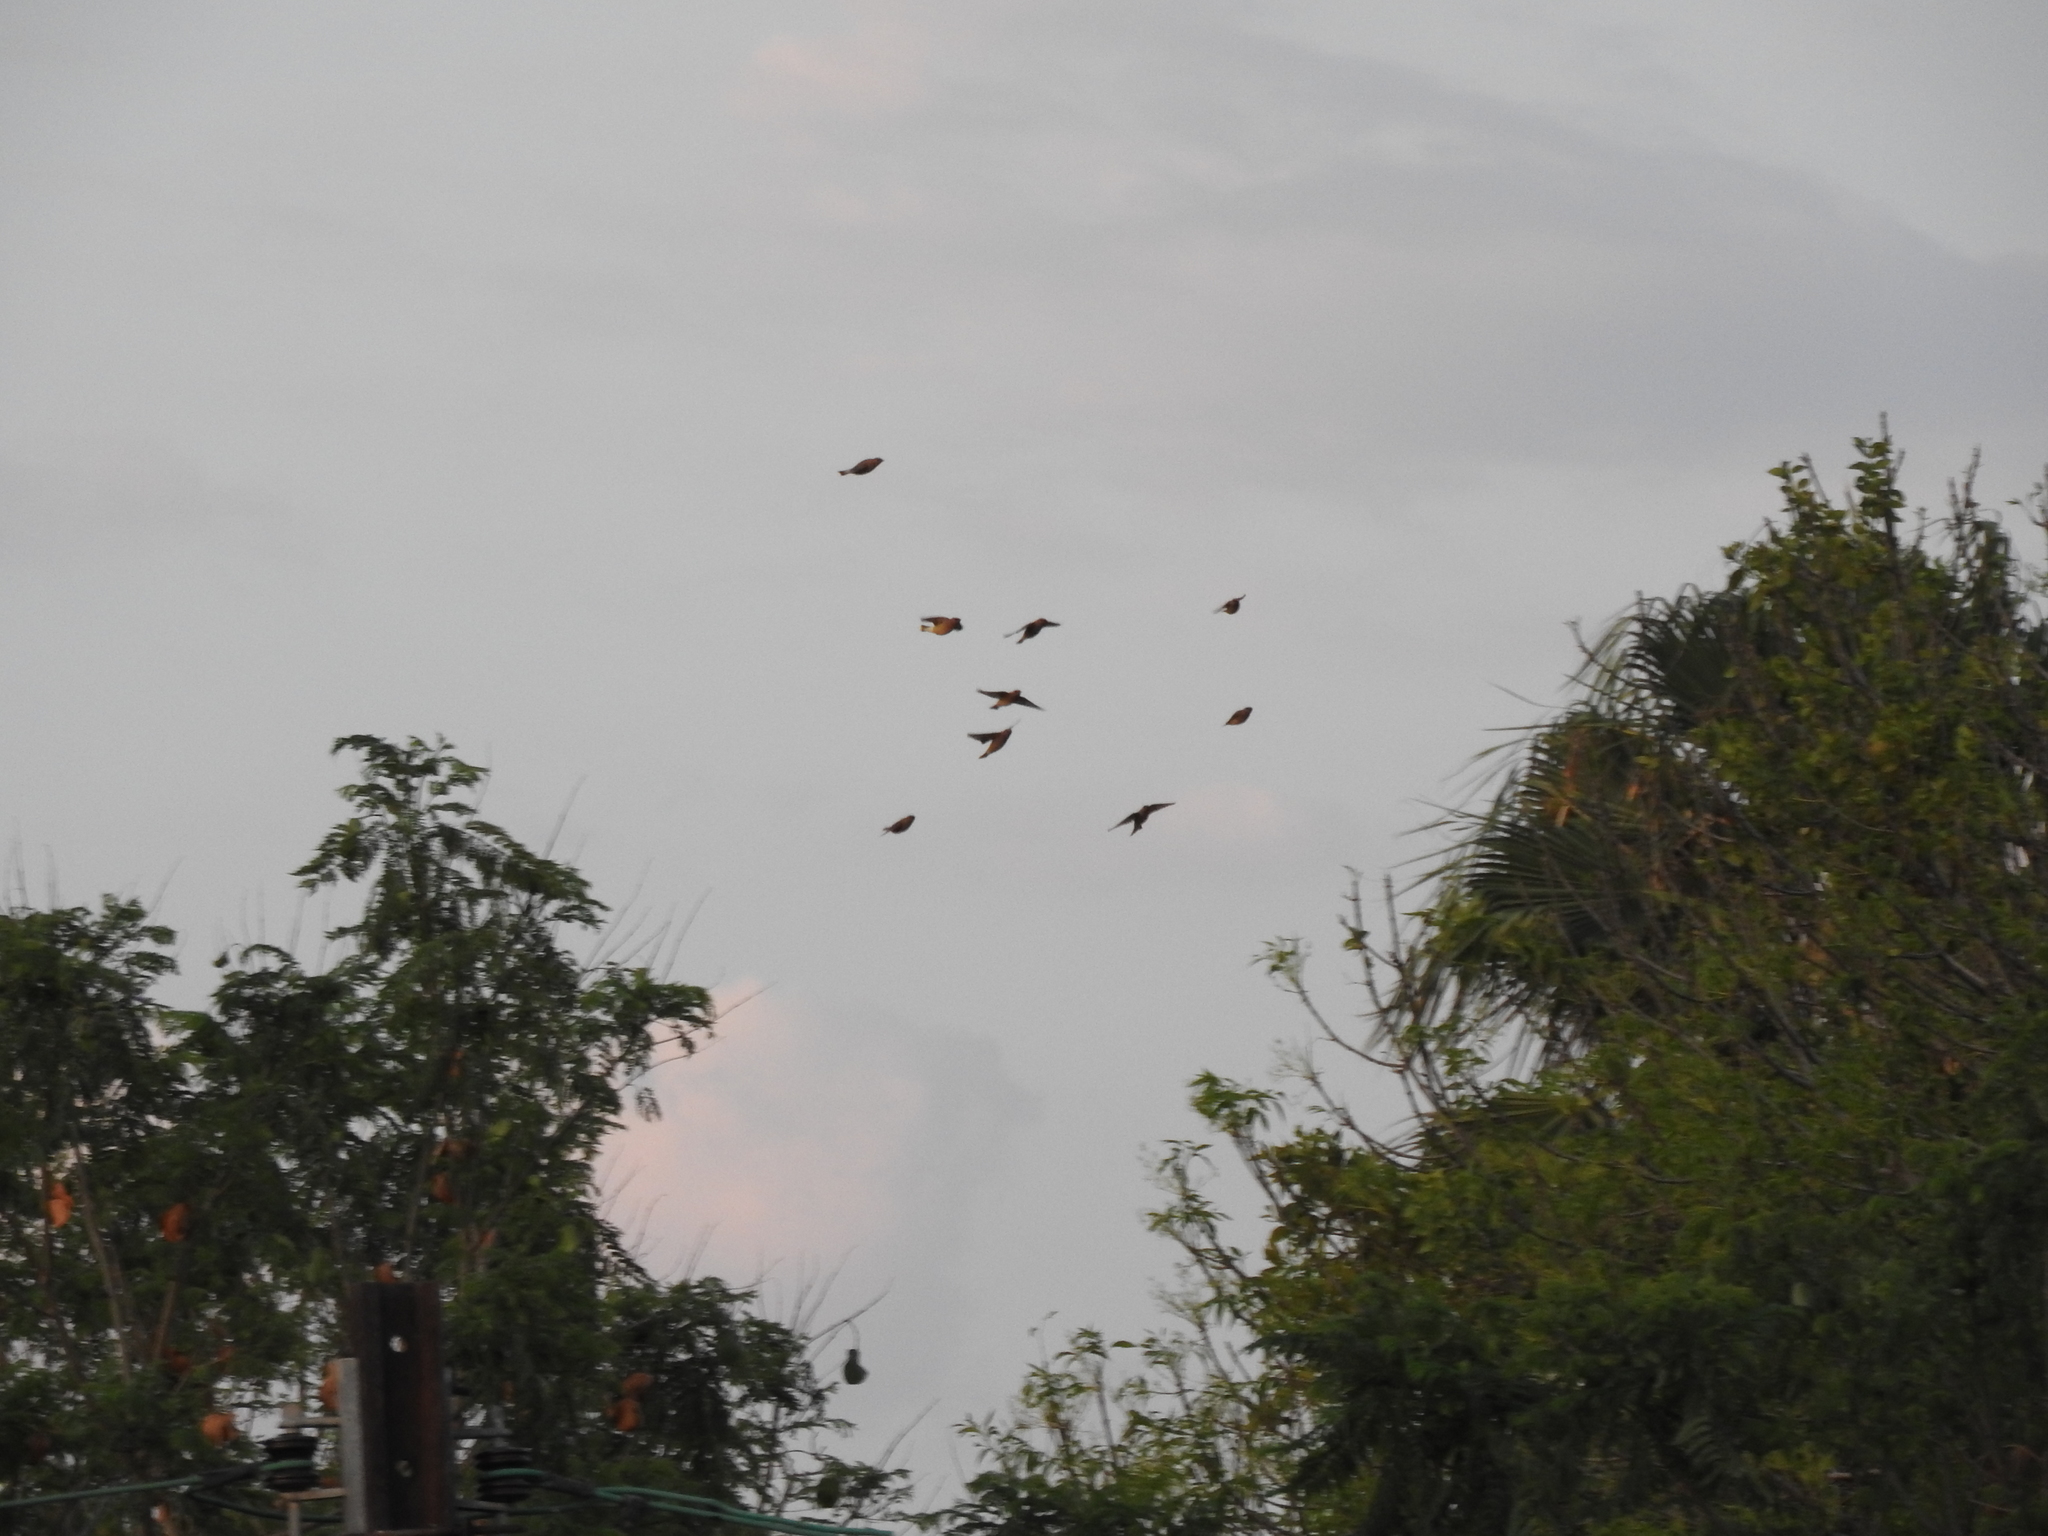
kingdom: Animalia
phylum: Chordata
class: Aves
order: Passeriformes
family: Bombycillidae
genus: Bombycilla
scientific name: Bombycilla cedrorum
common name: Cedar waxwing
